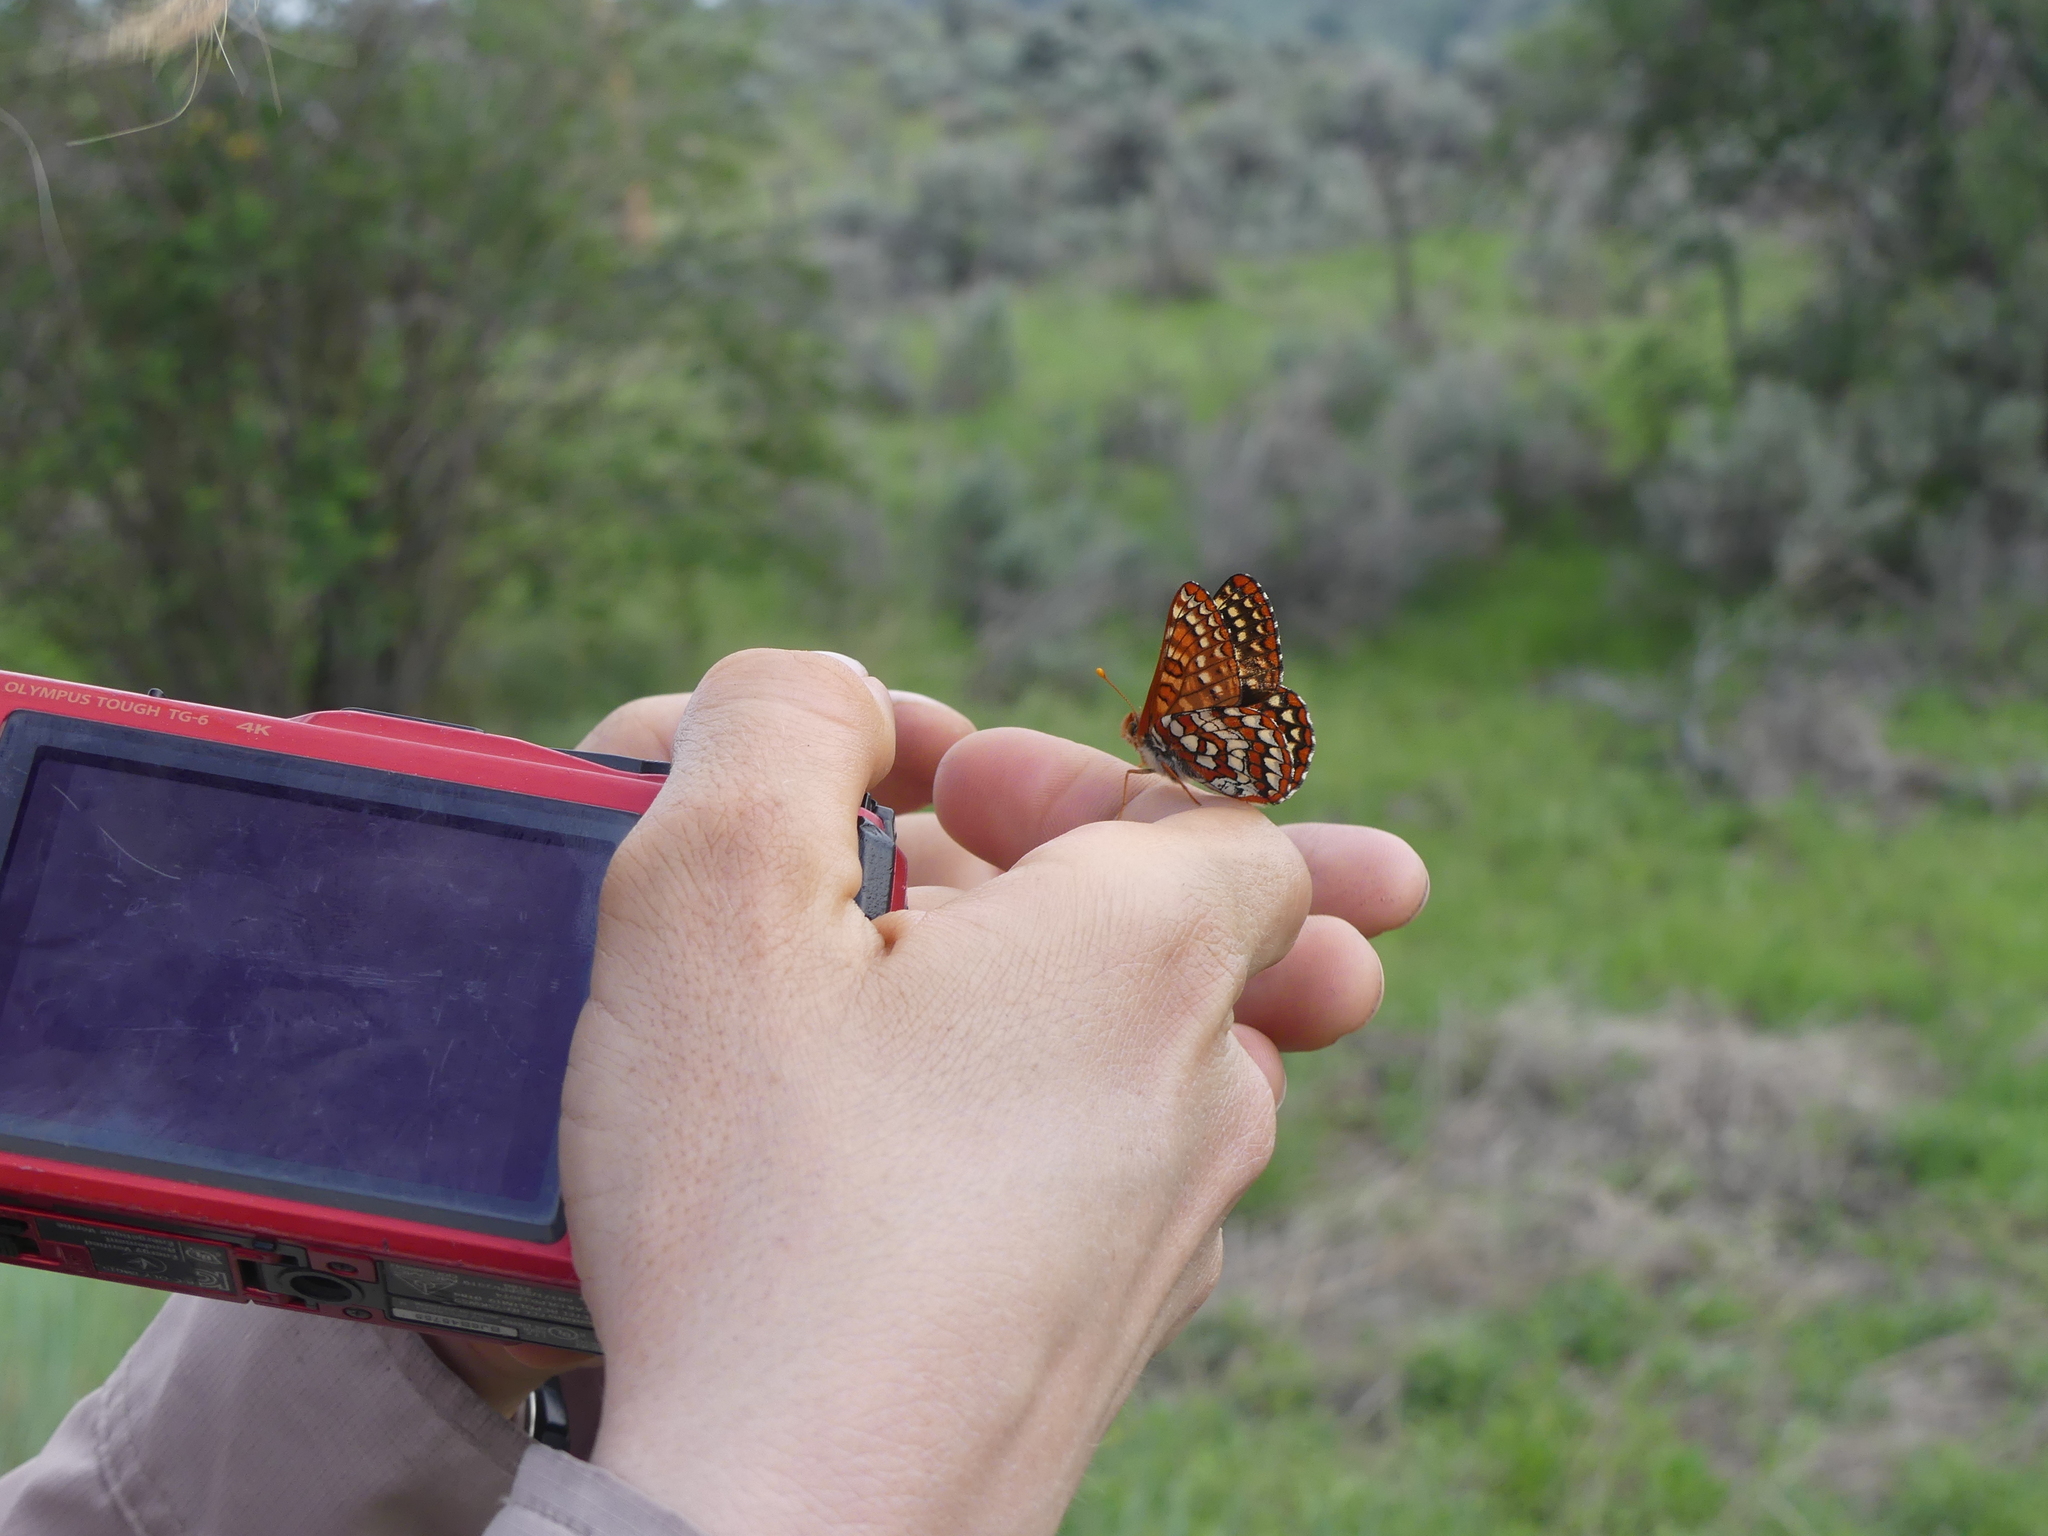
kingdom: Animalia
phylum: Arthropoda
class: Insecta
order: Lepidoptera
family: Nymphalidae
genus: Occidryas
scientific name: Occidryas anicia
